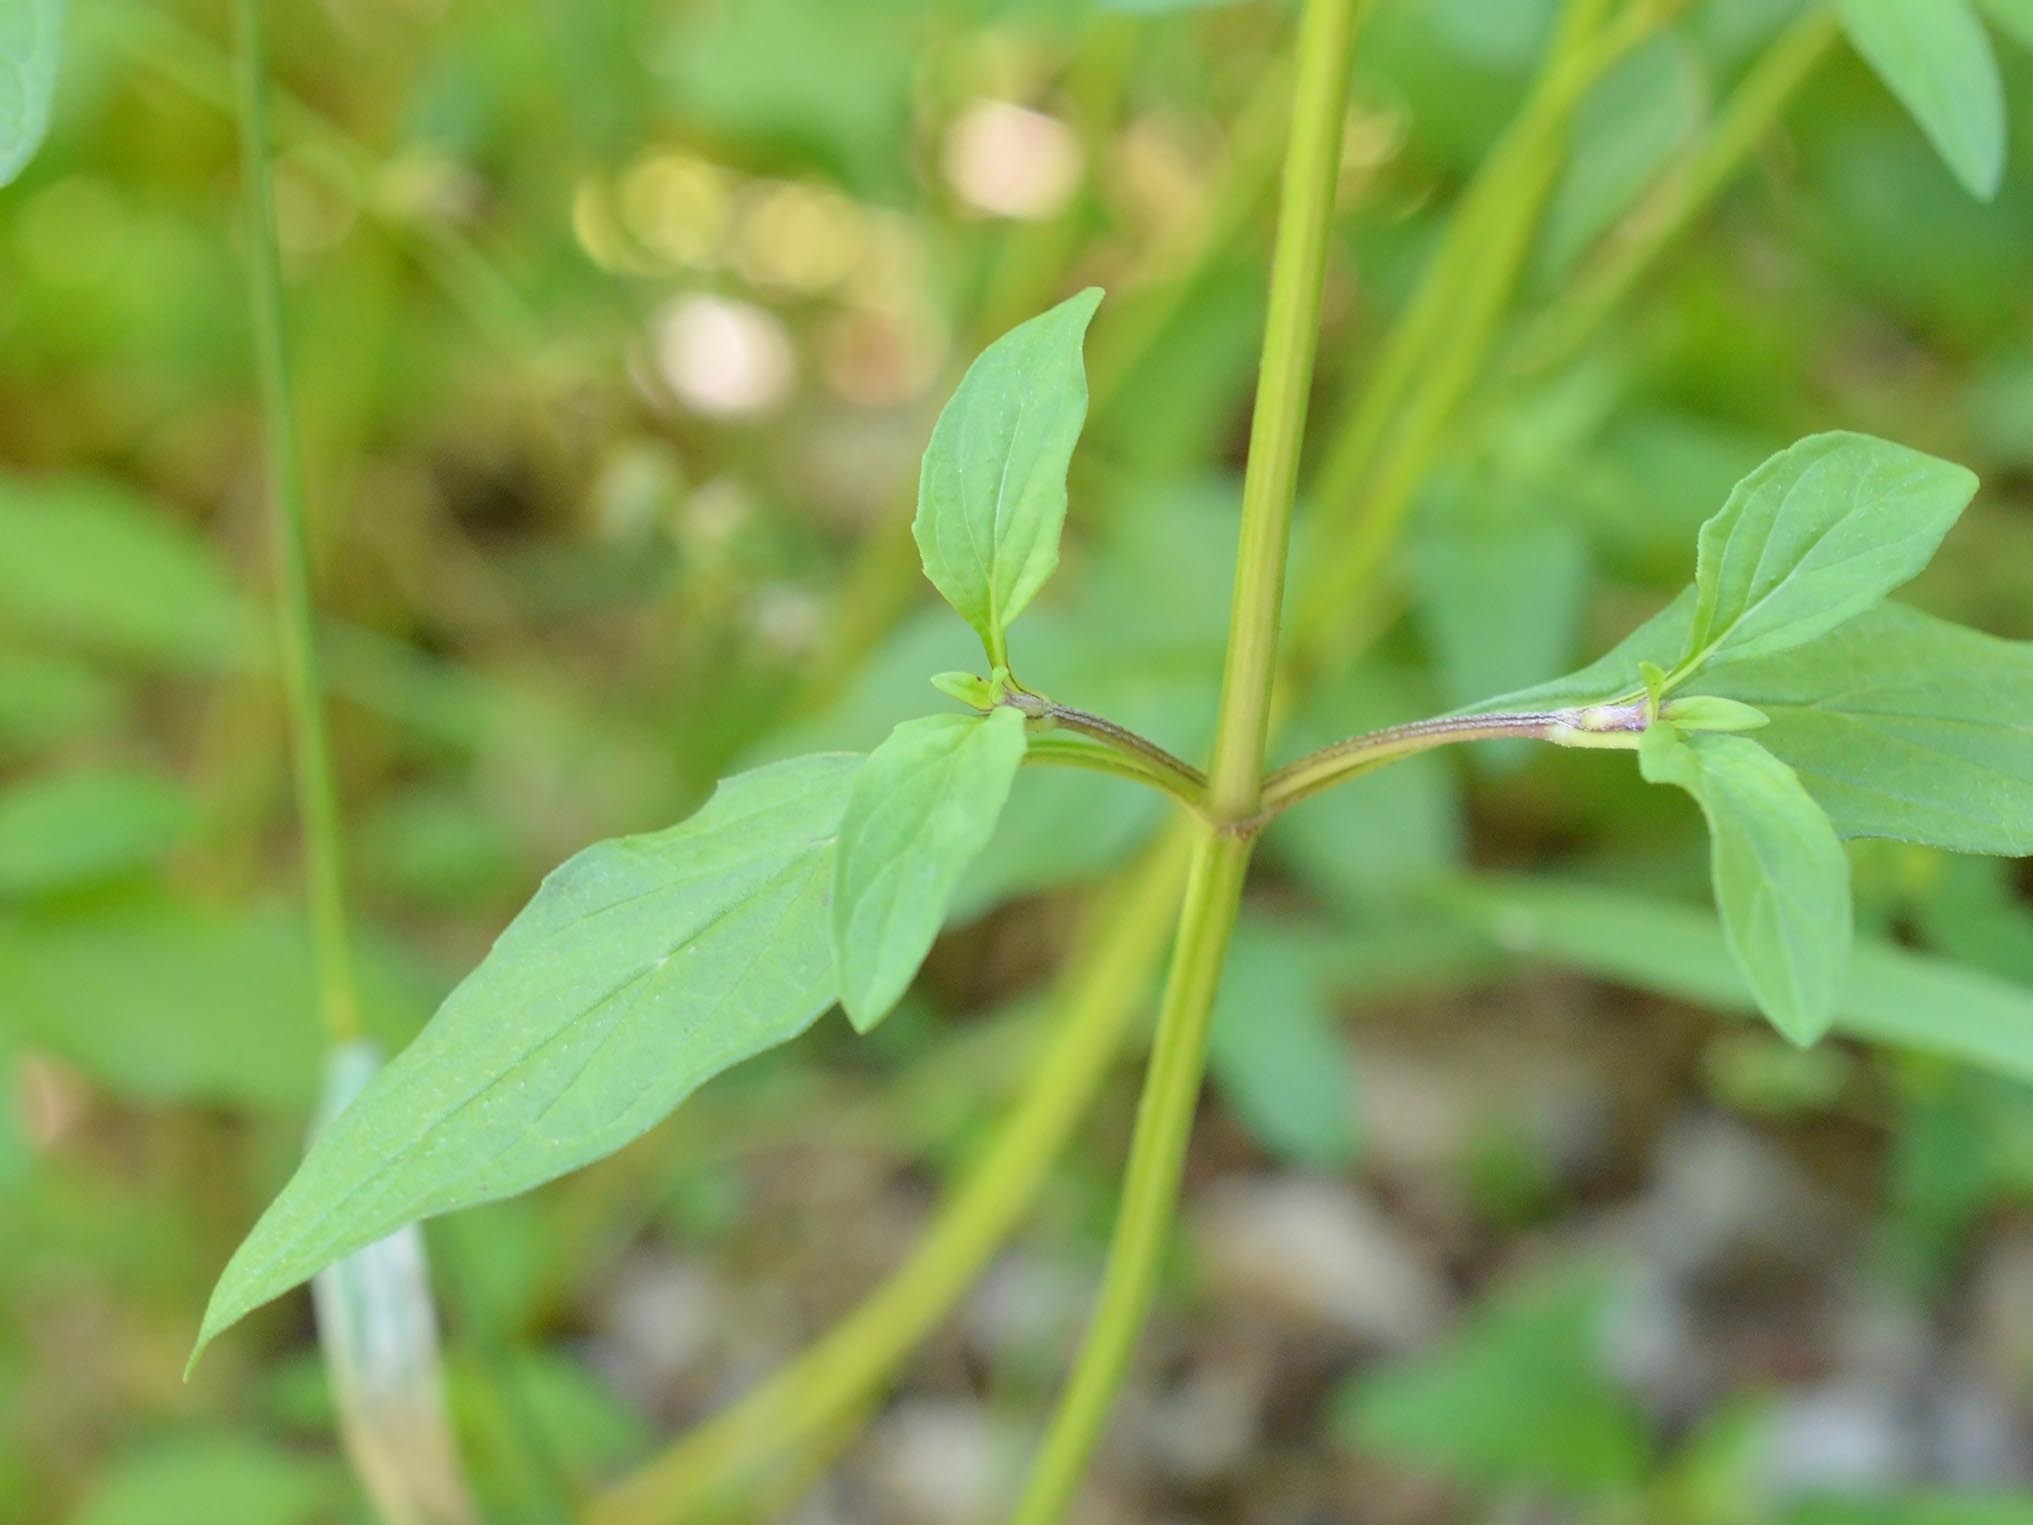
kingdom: Plantae
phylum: Tracheophyta
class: Magnoliopsida
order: Lamiales
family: Lamiaceae
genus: Prunella
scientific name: Prunella vulgaris
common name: Heal-all
